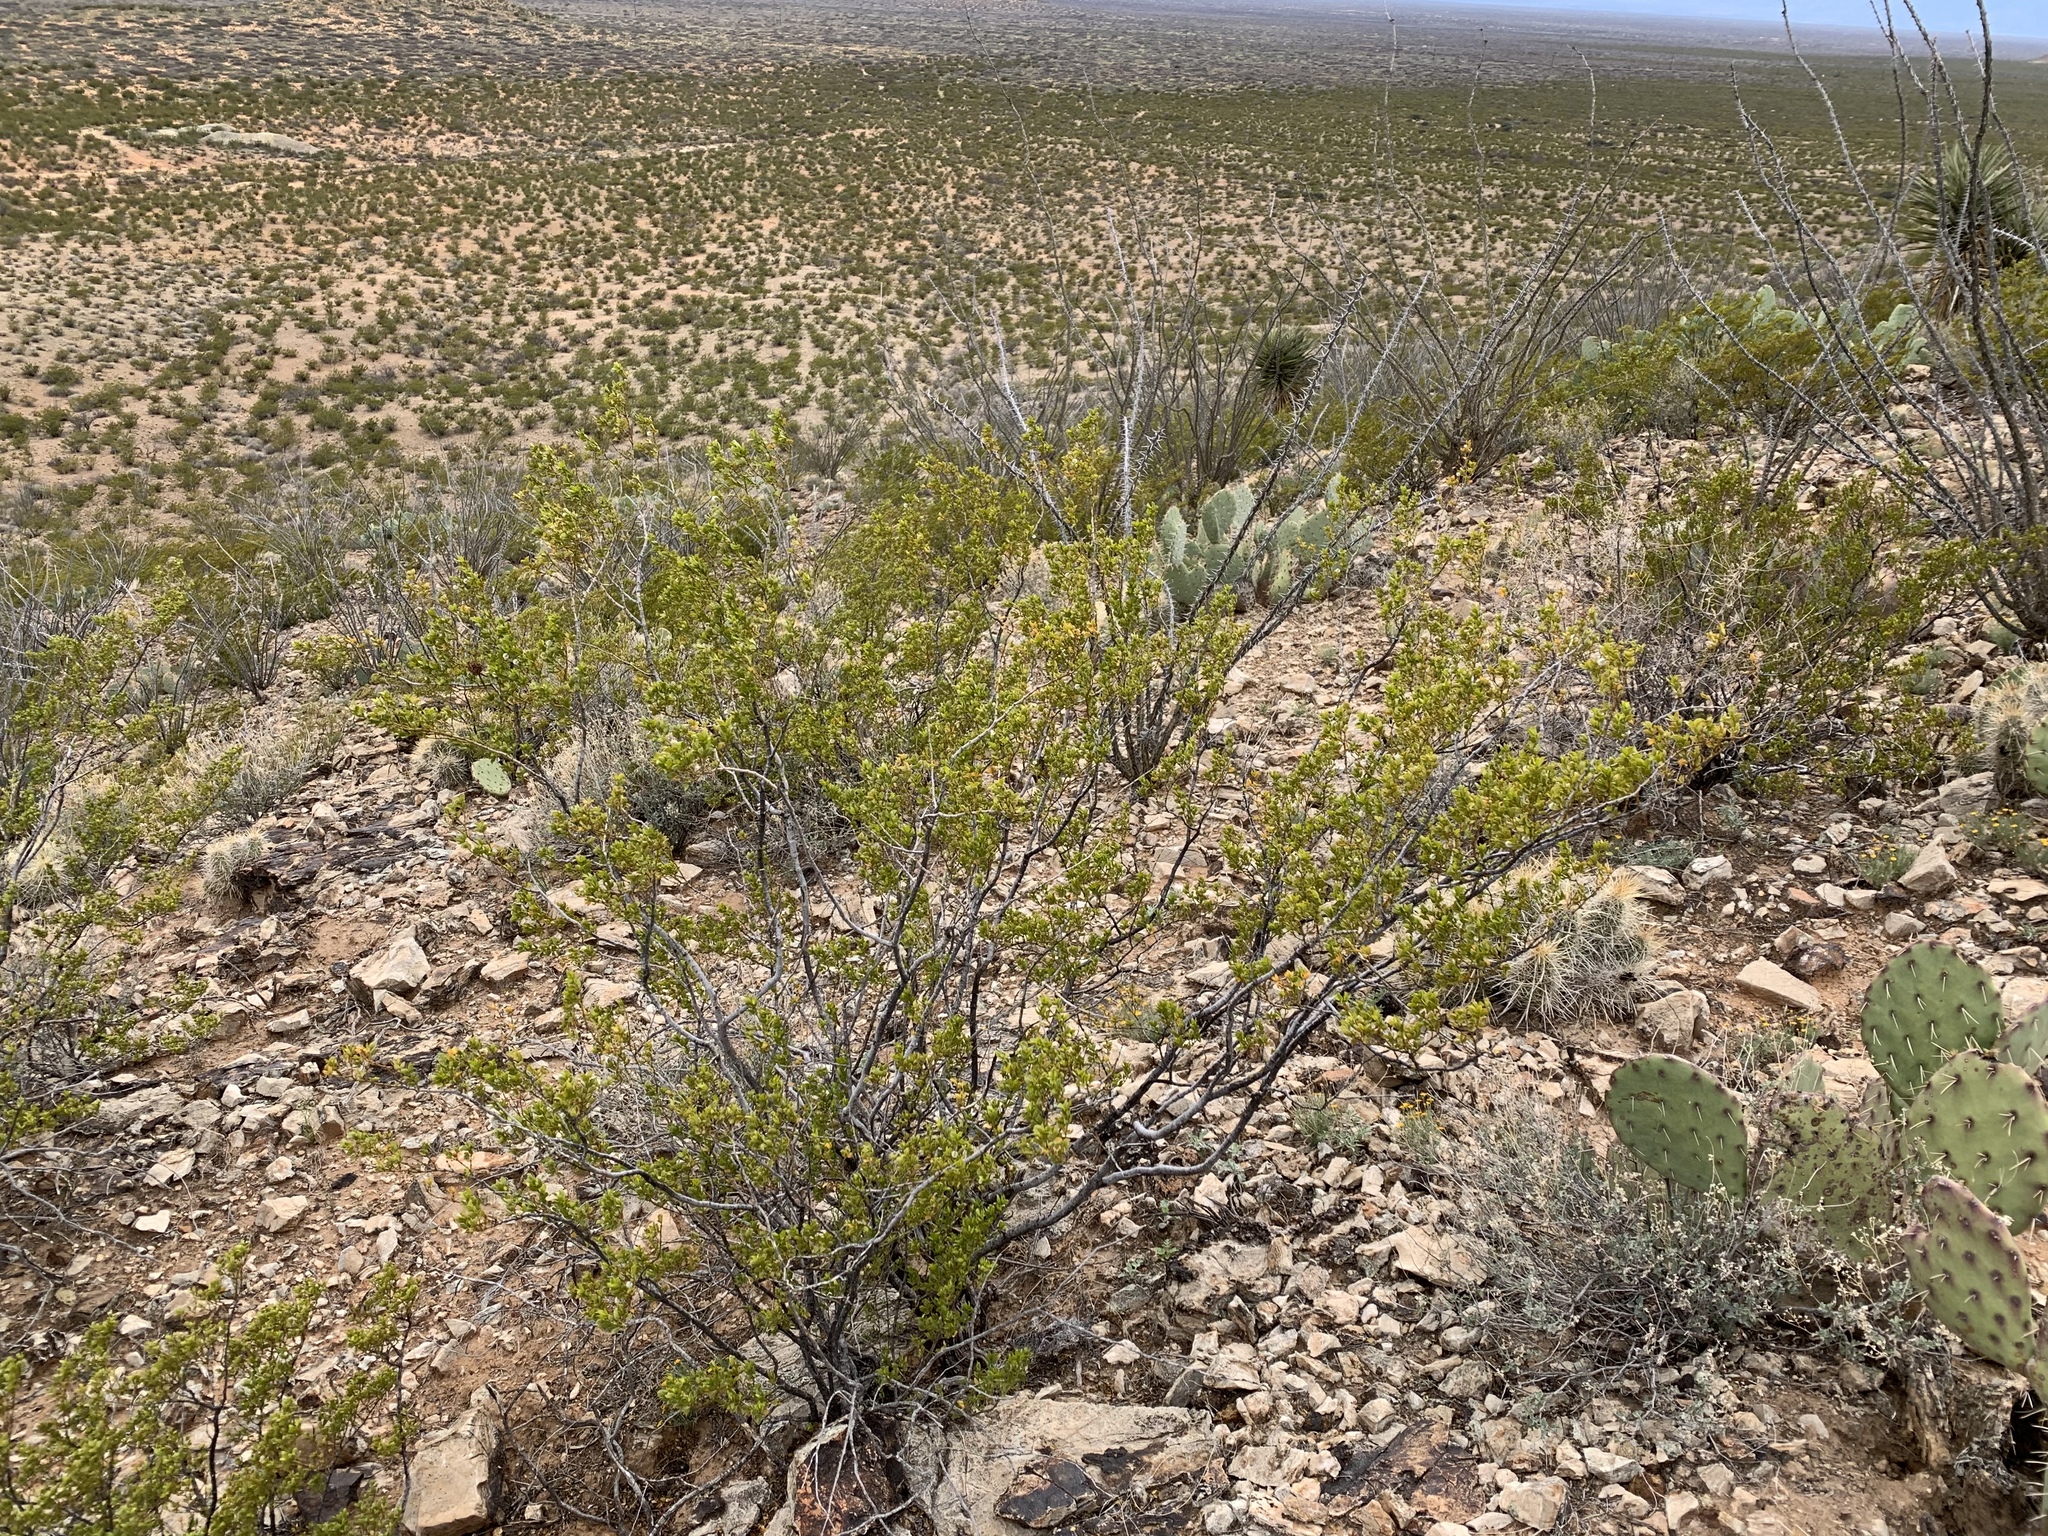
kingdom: Plantae
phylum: Tracheophyta
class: Magnoliopsida
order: Zygophyllales
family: Zygophyllaceae
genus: Larrea
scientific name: Larrea tridentata
